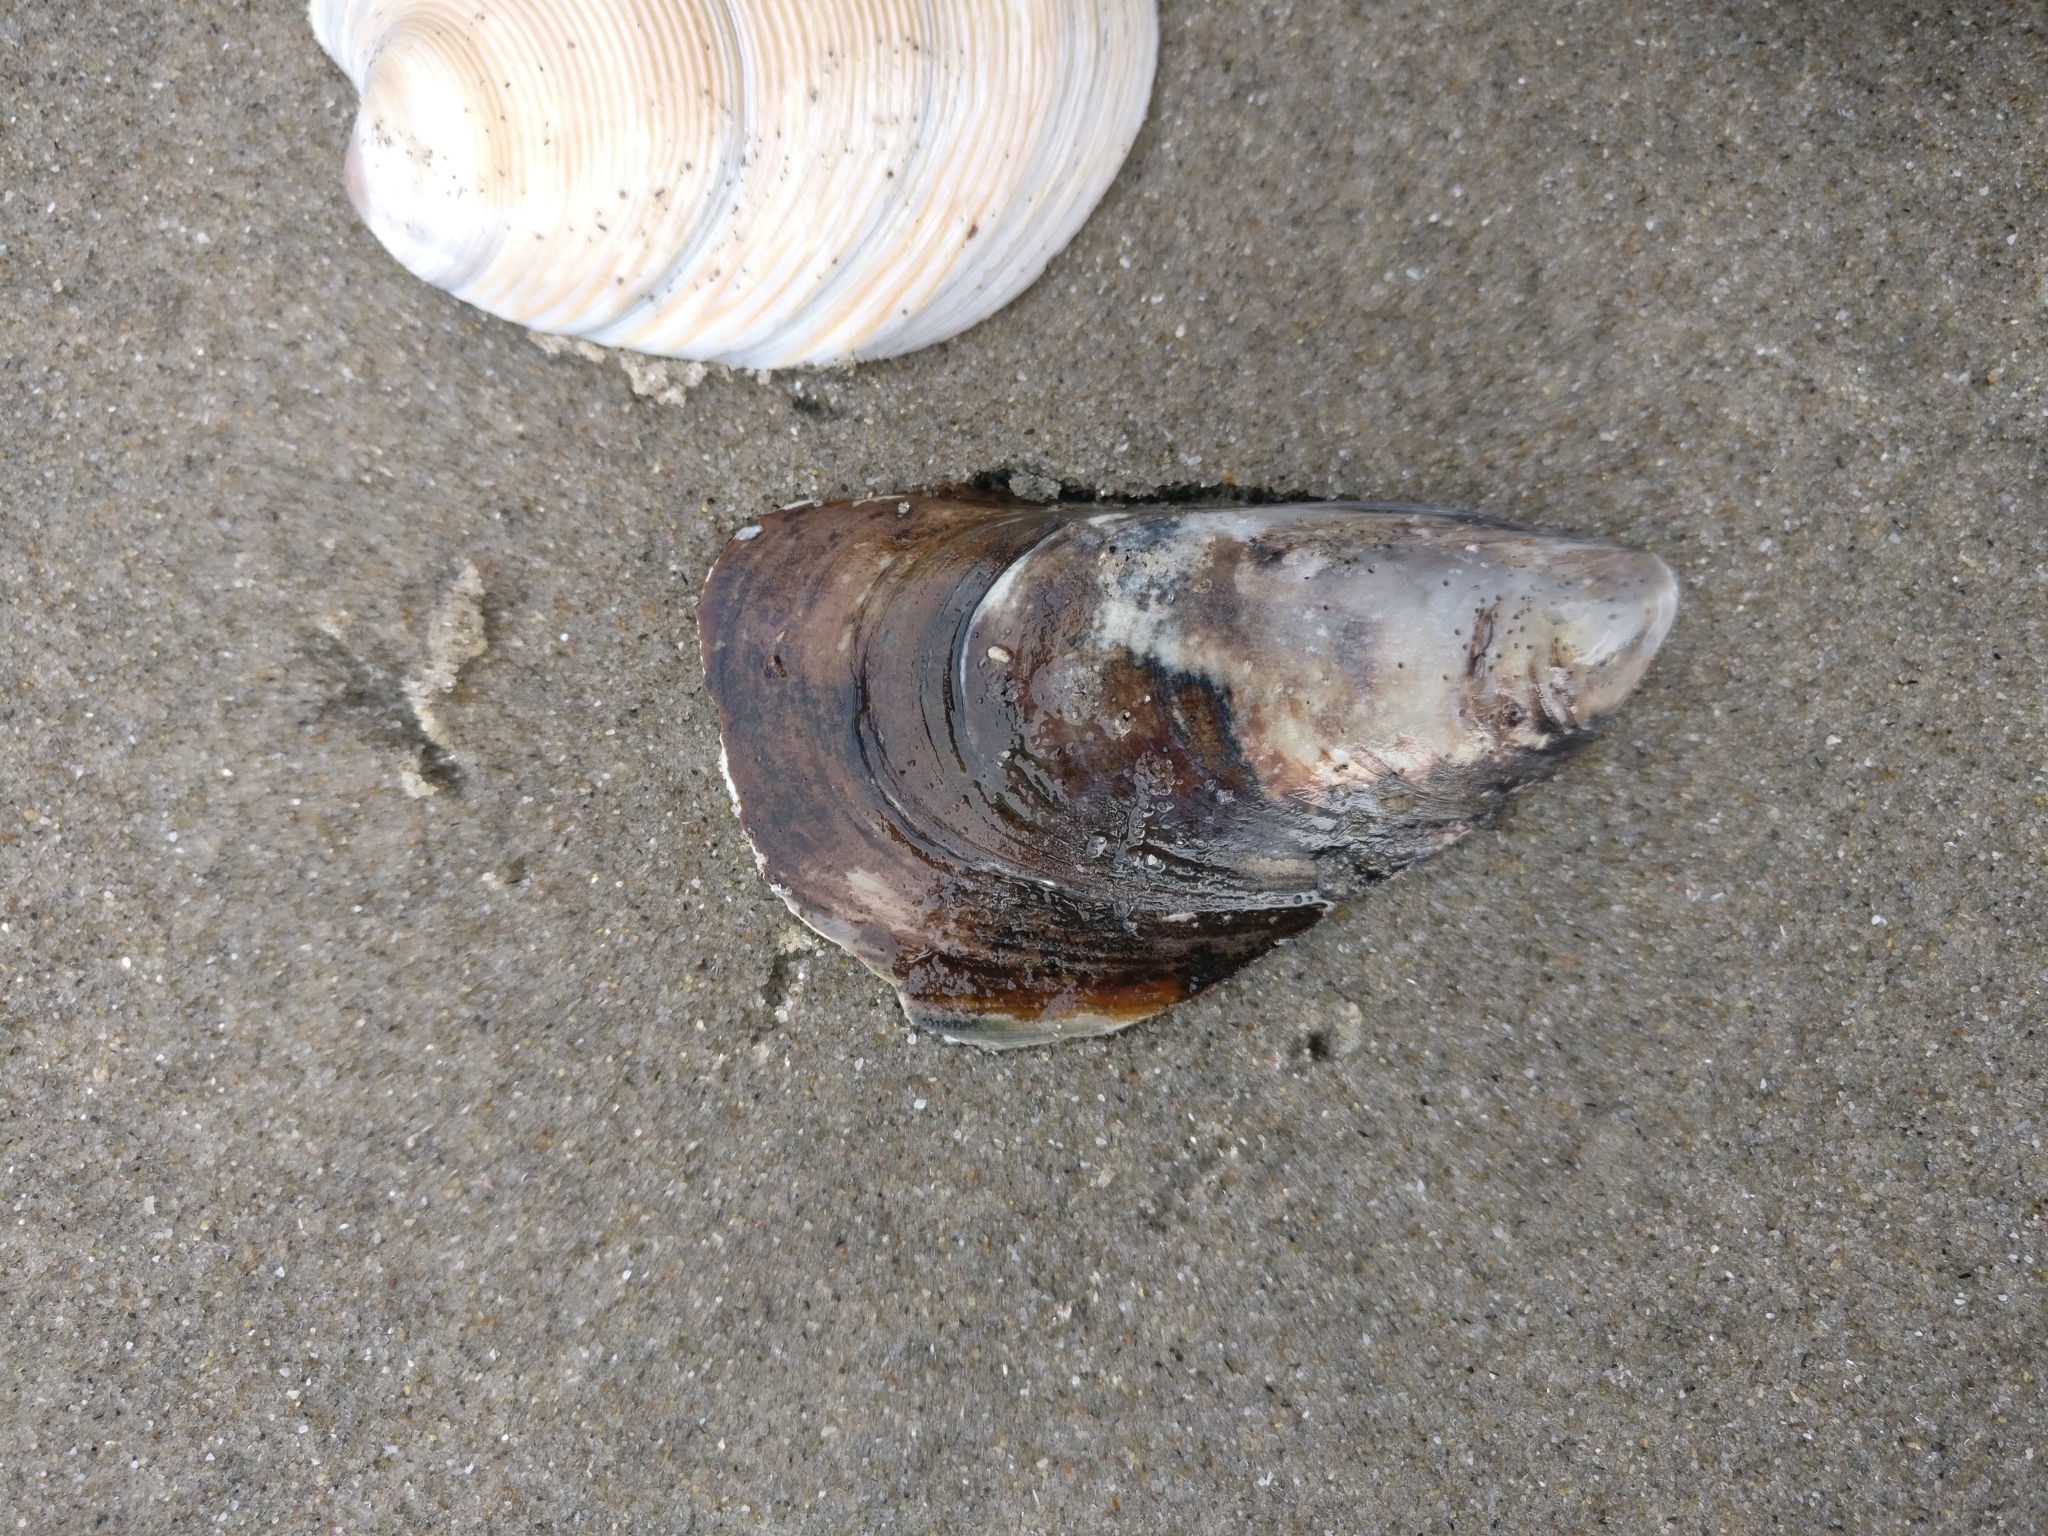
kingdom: Animalia
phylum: Mollusca
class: Bivalvia
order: Mytilida
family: Mytilidae
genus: Perna
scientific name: Perna canaliculus
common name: New zealand greenshelltm
